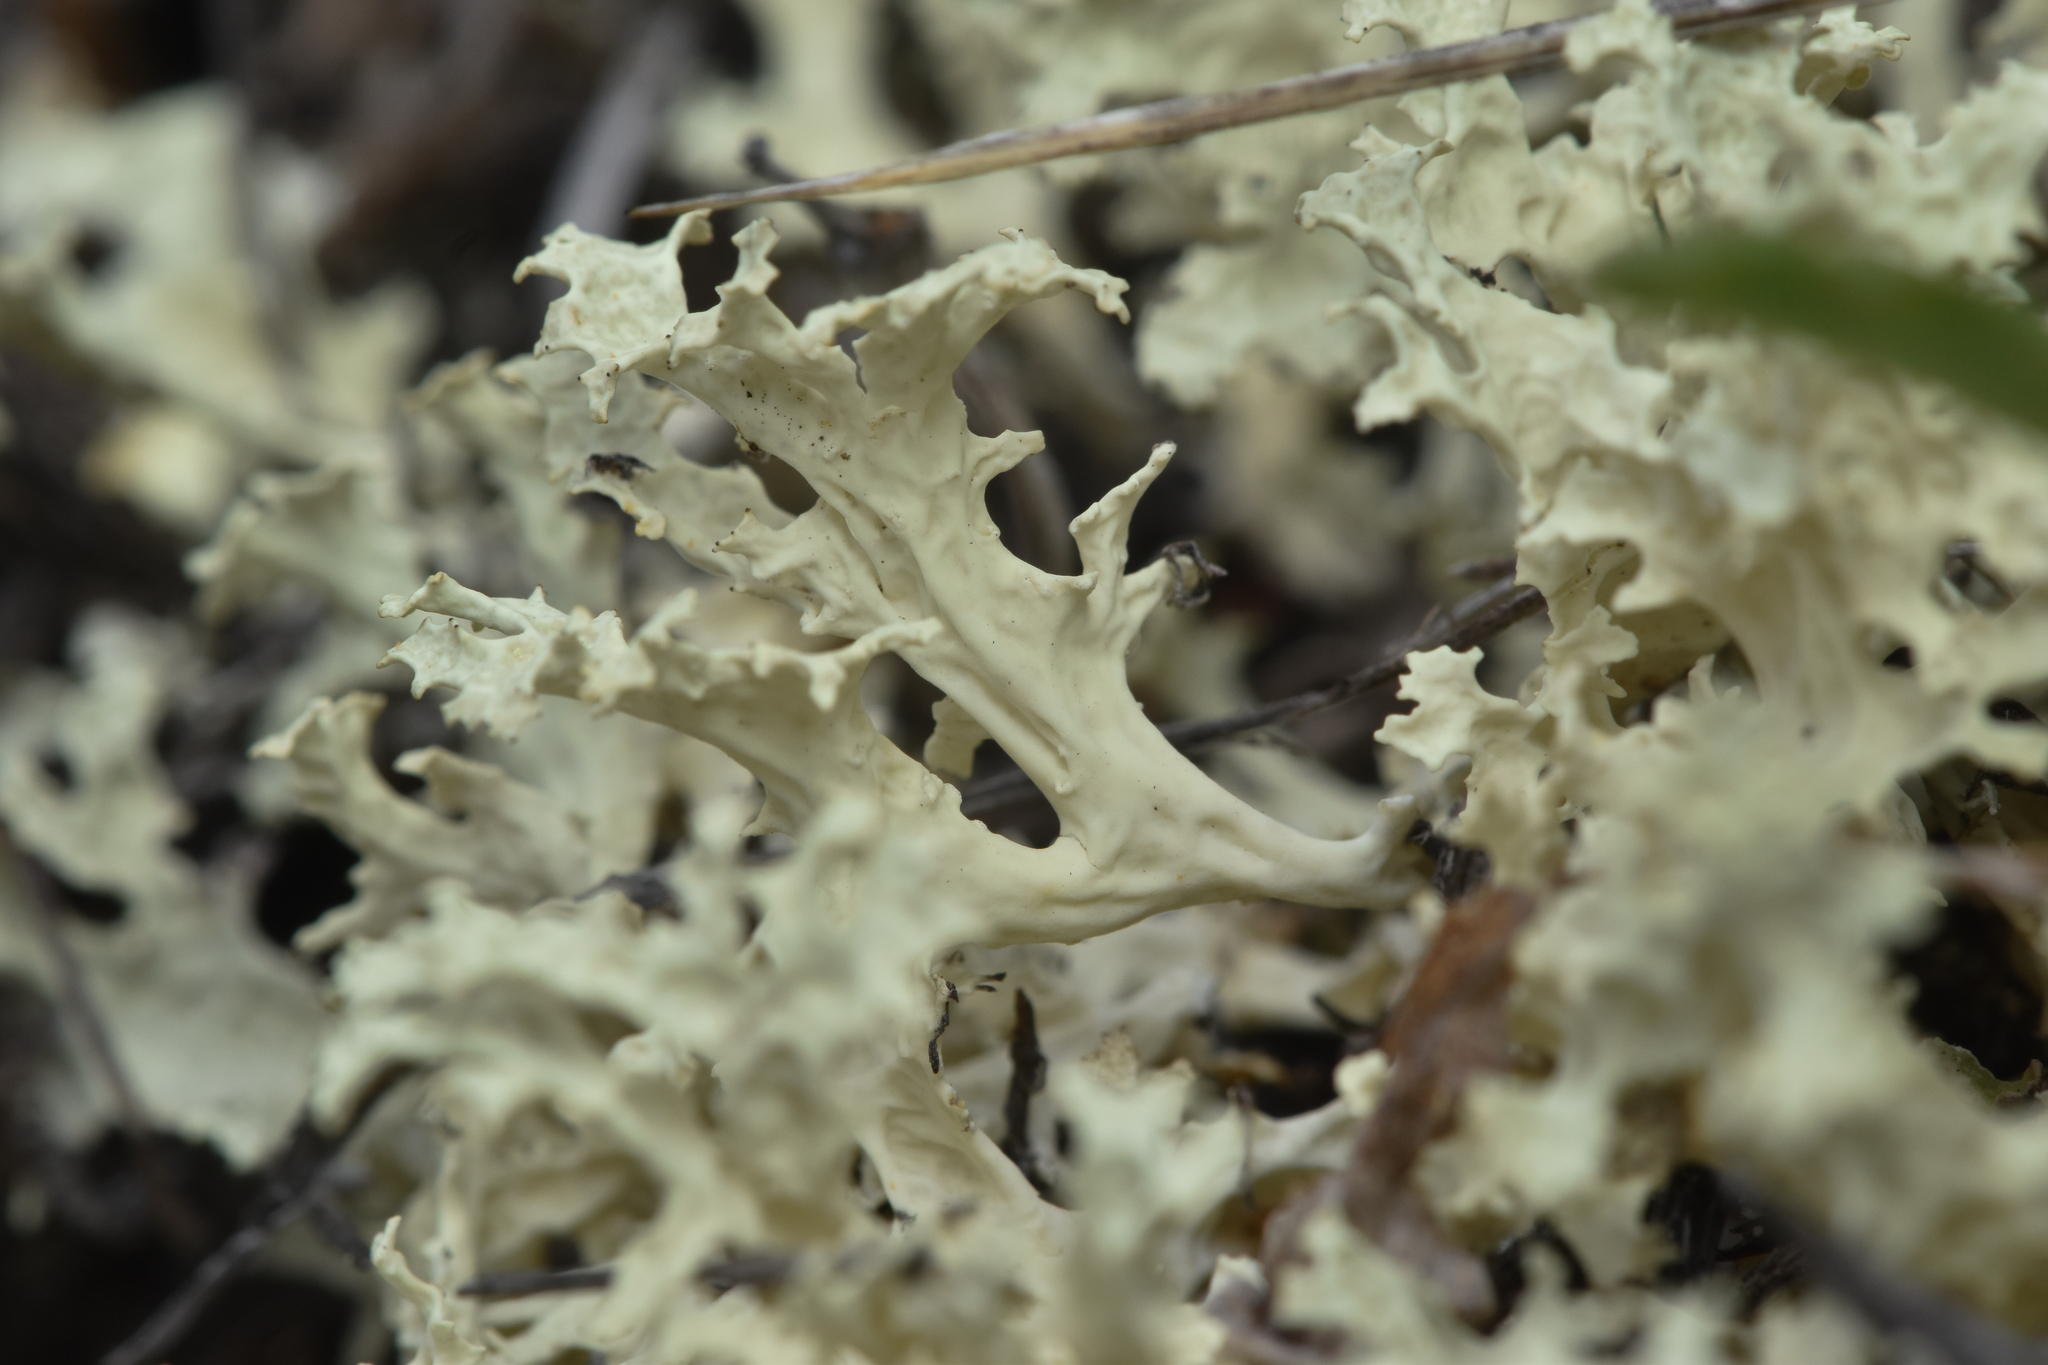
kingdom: Fungi
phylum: Ascomycota
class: Lecanoromycetes
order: Lecanorales
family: Parmeliaceae
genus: Nephromopsis
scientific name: Nephromopsis nivalis
